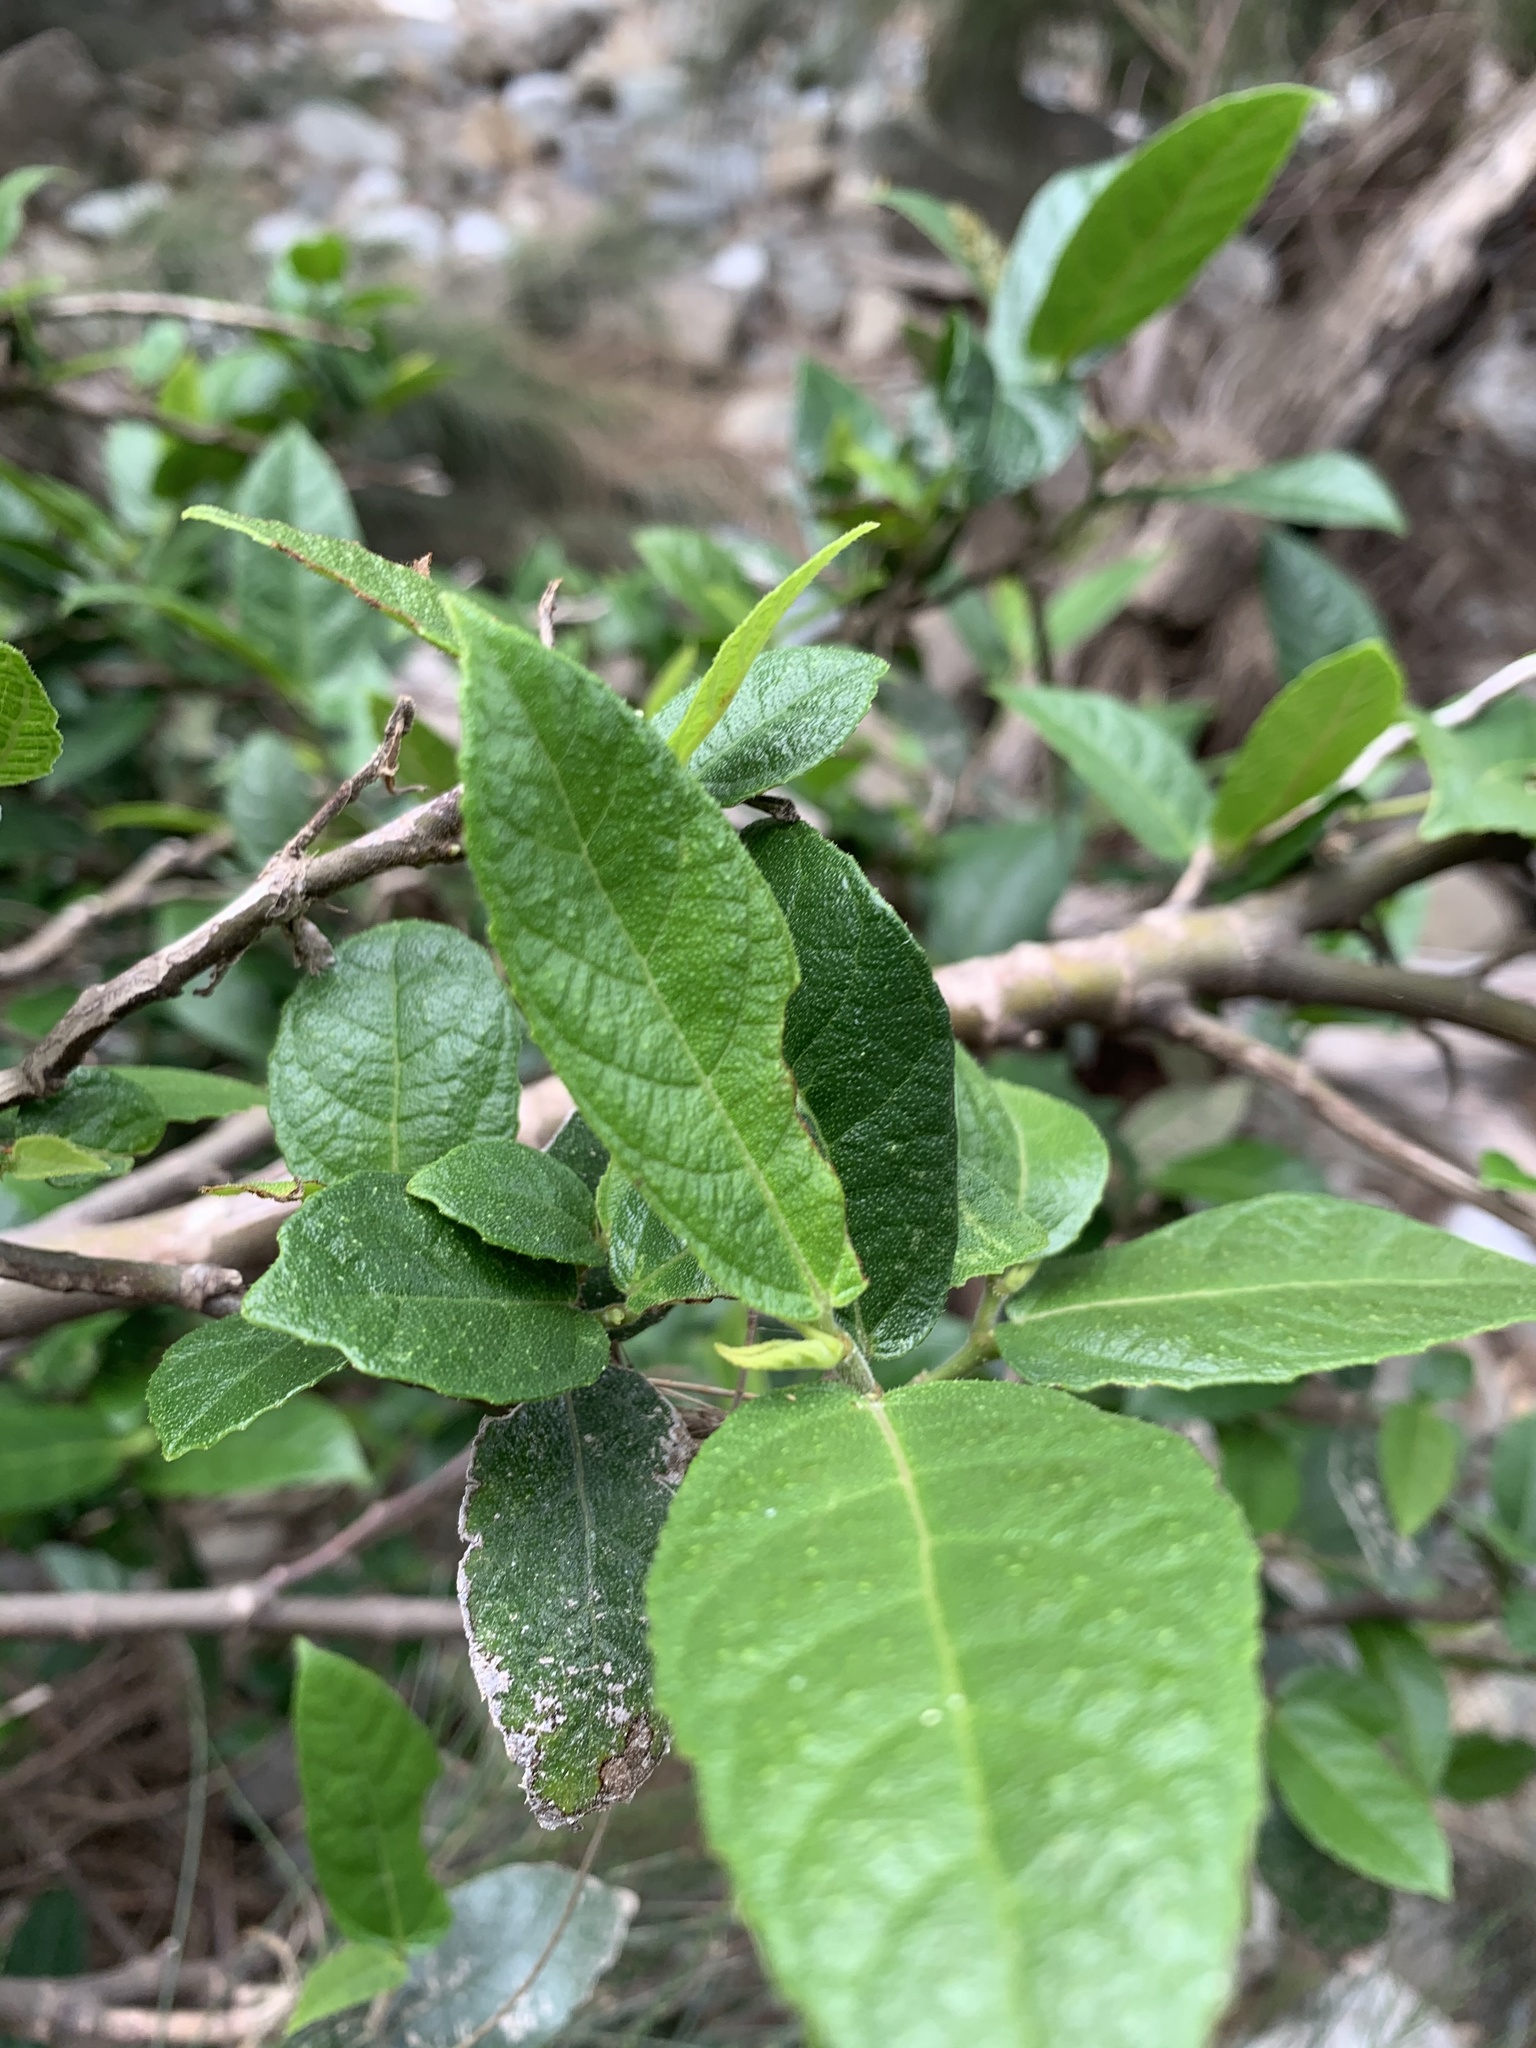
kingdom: Plantae
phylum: Tracheophyta
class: Magnoliopsida
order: Rosales
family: Moraceae
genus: Ficus
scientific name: Ficus coronata
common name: Creek sandpaper fig
